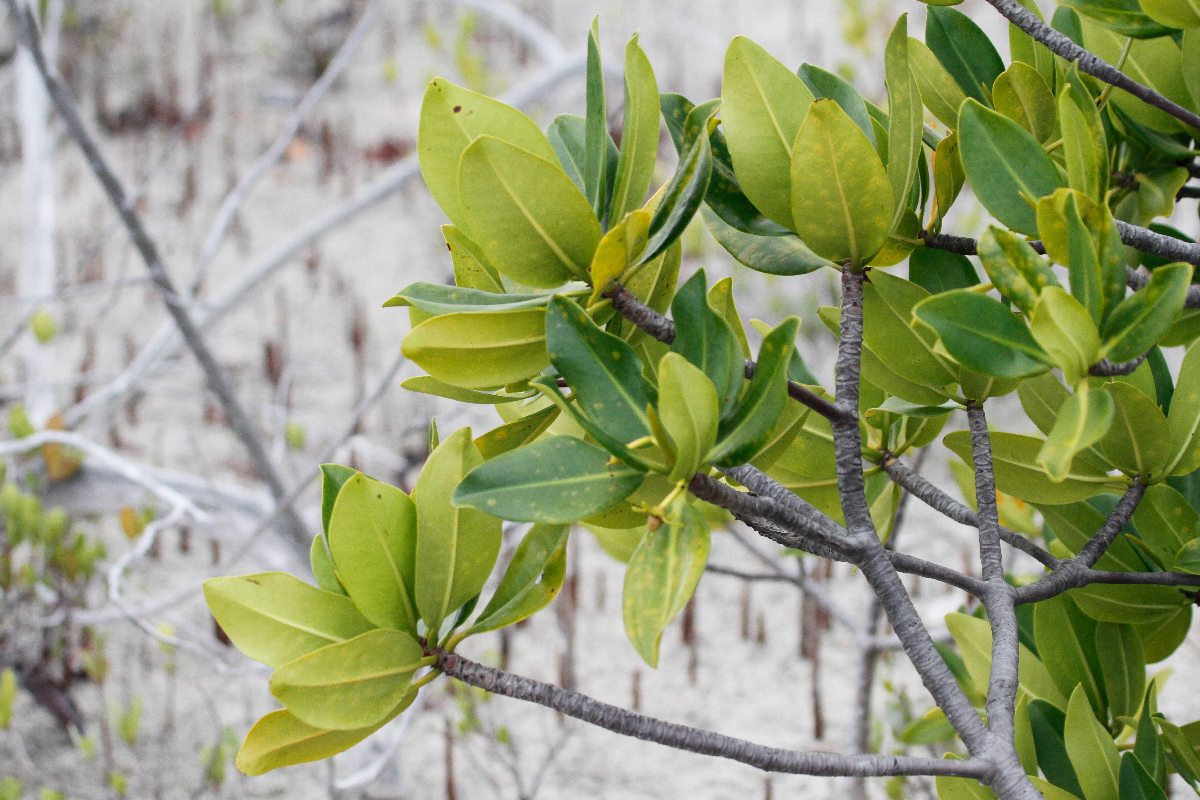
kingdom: Plantae
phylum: Tracheophyta
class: Magnoliopsida
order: Malpighiales
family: Rhizophoraceae
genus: Rhizophora
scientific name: Rhizophora mangle
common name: Red mangrove
